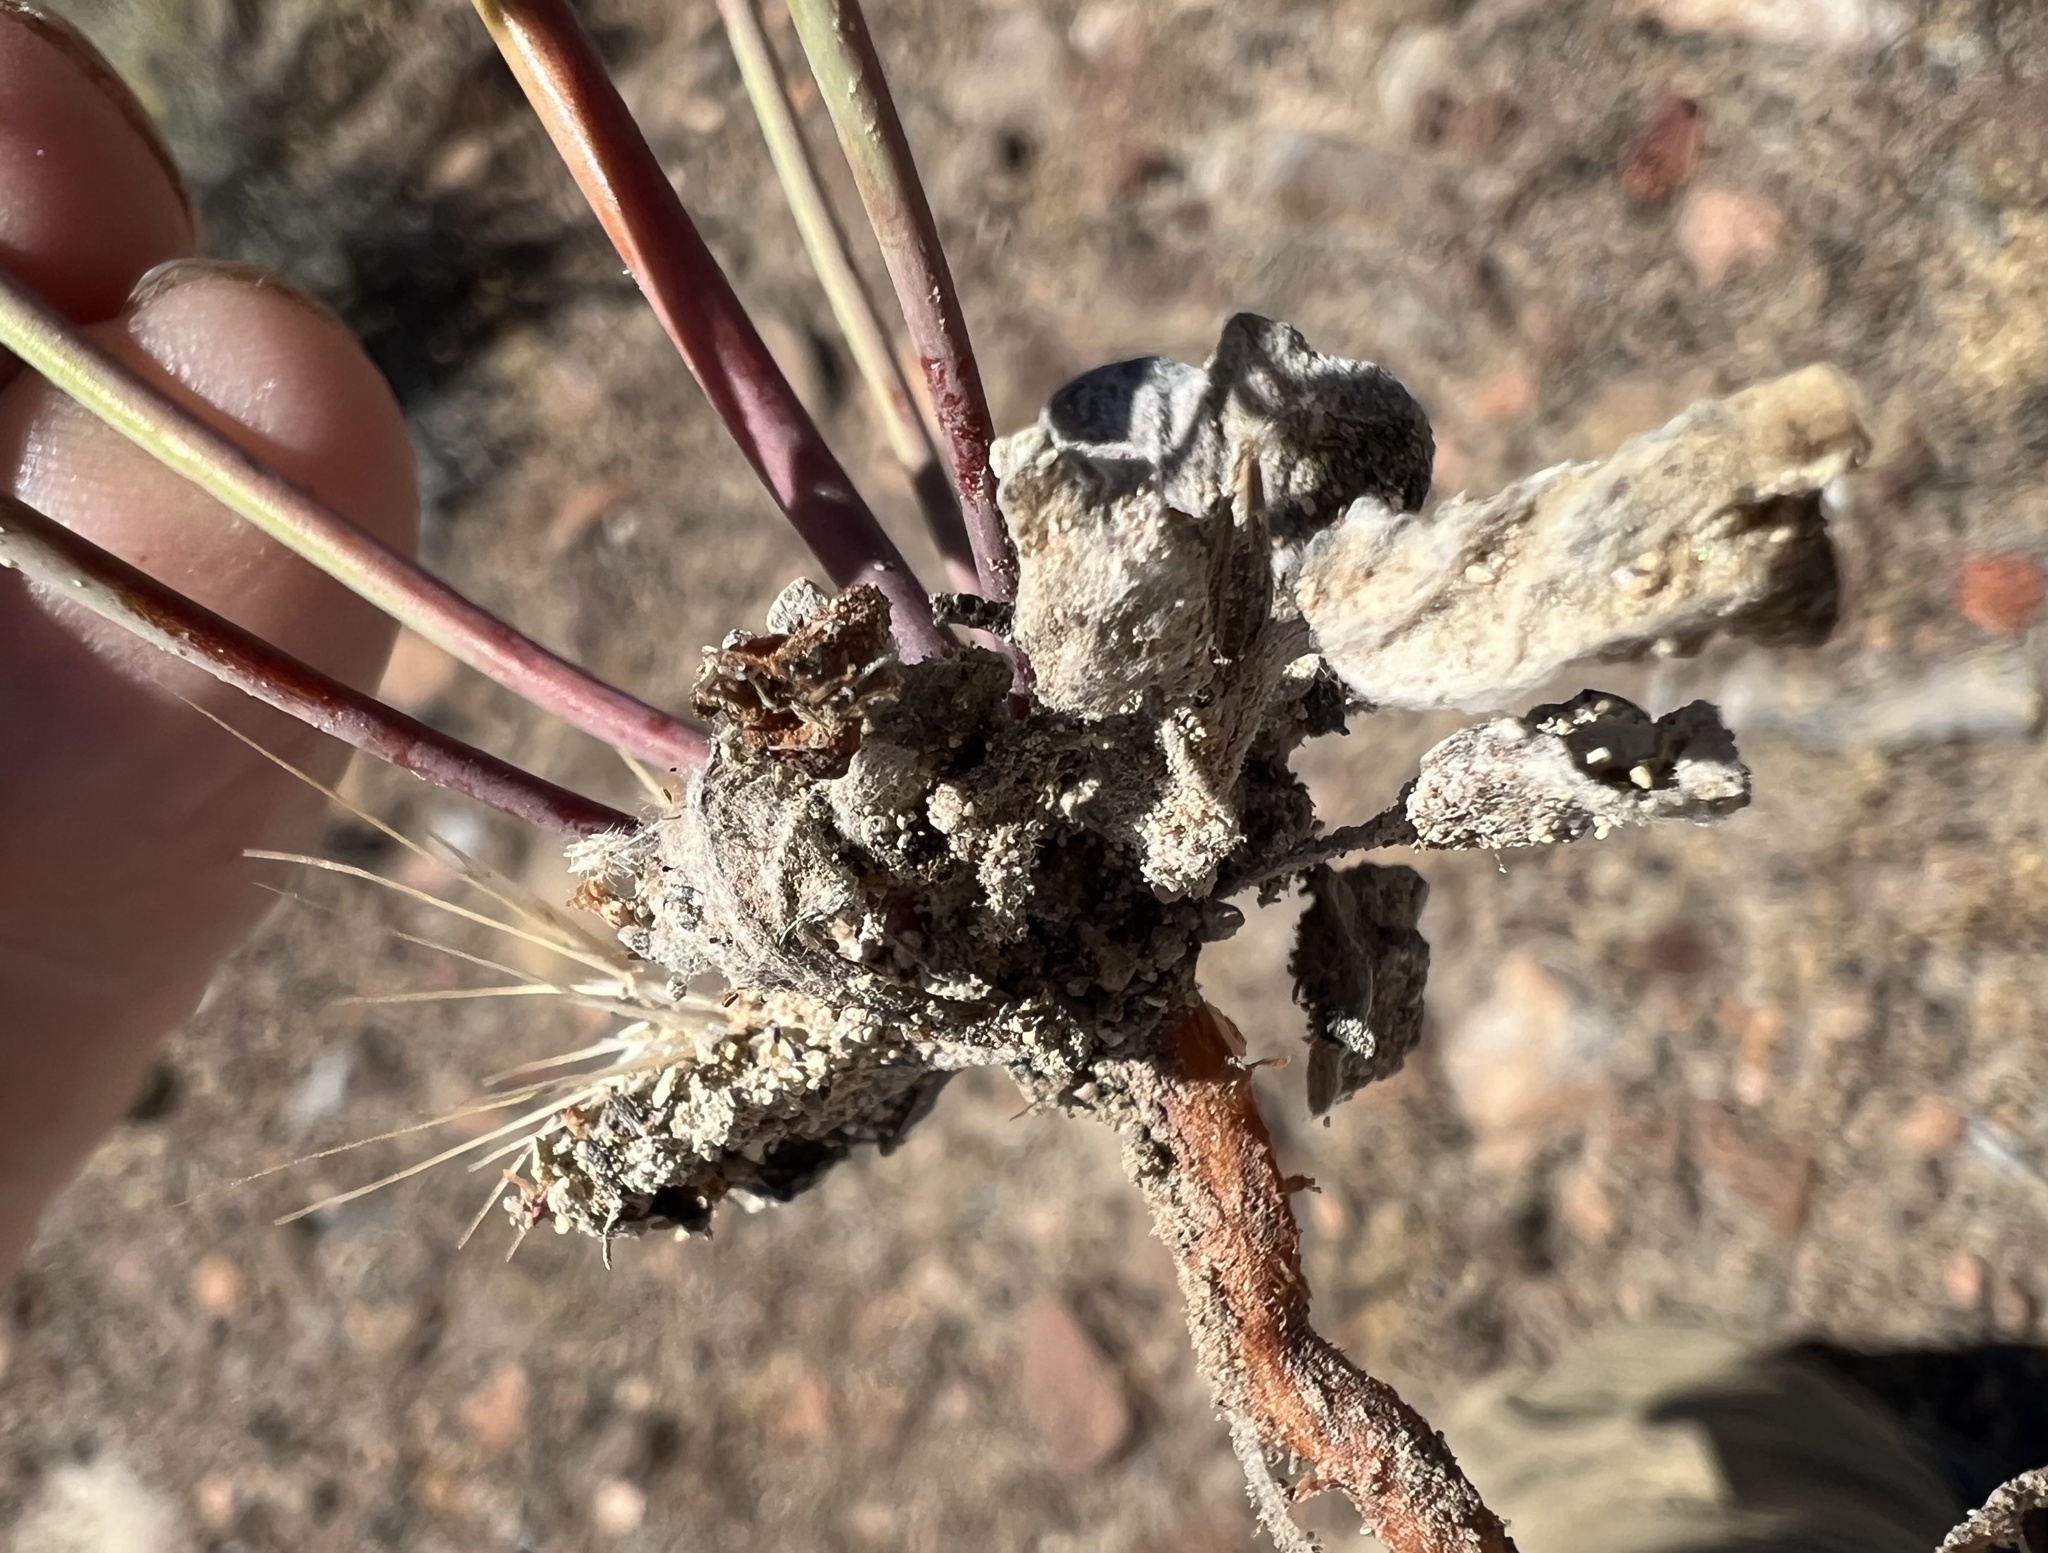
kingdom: Plantae
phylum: Tracheophyta
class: Magnoliopsida
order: Caryophyllales
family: Polygonaceae
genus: Eriogonum
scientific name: Eriogonum baileyi
